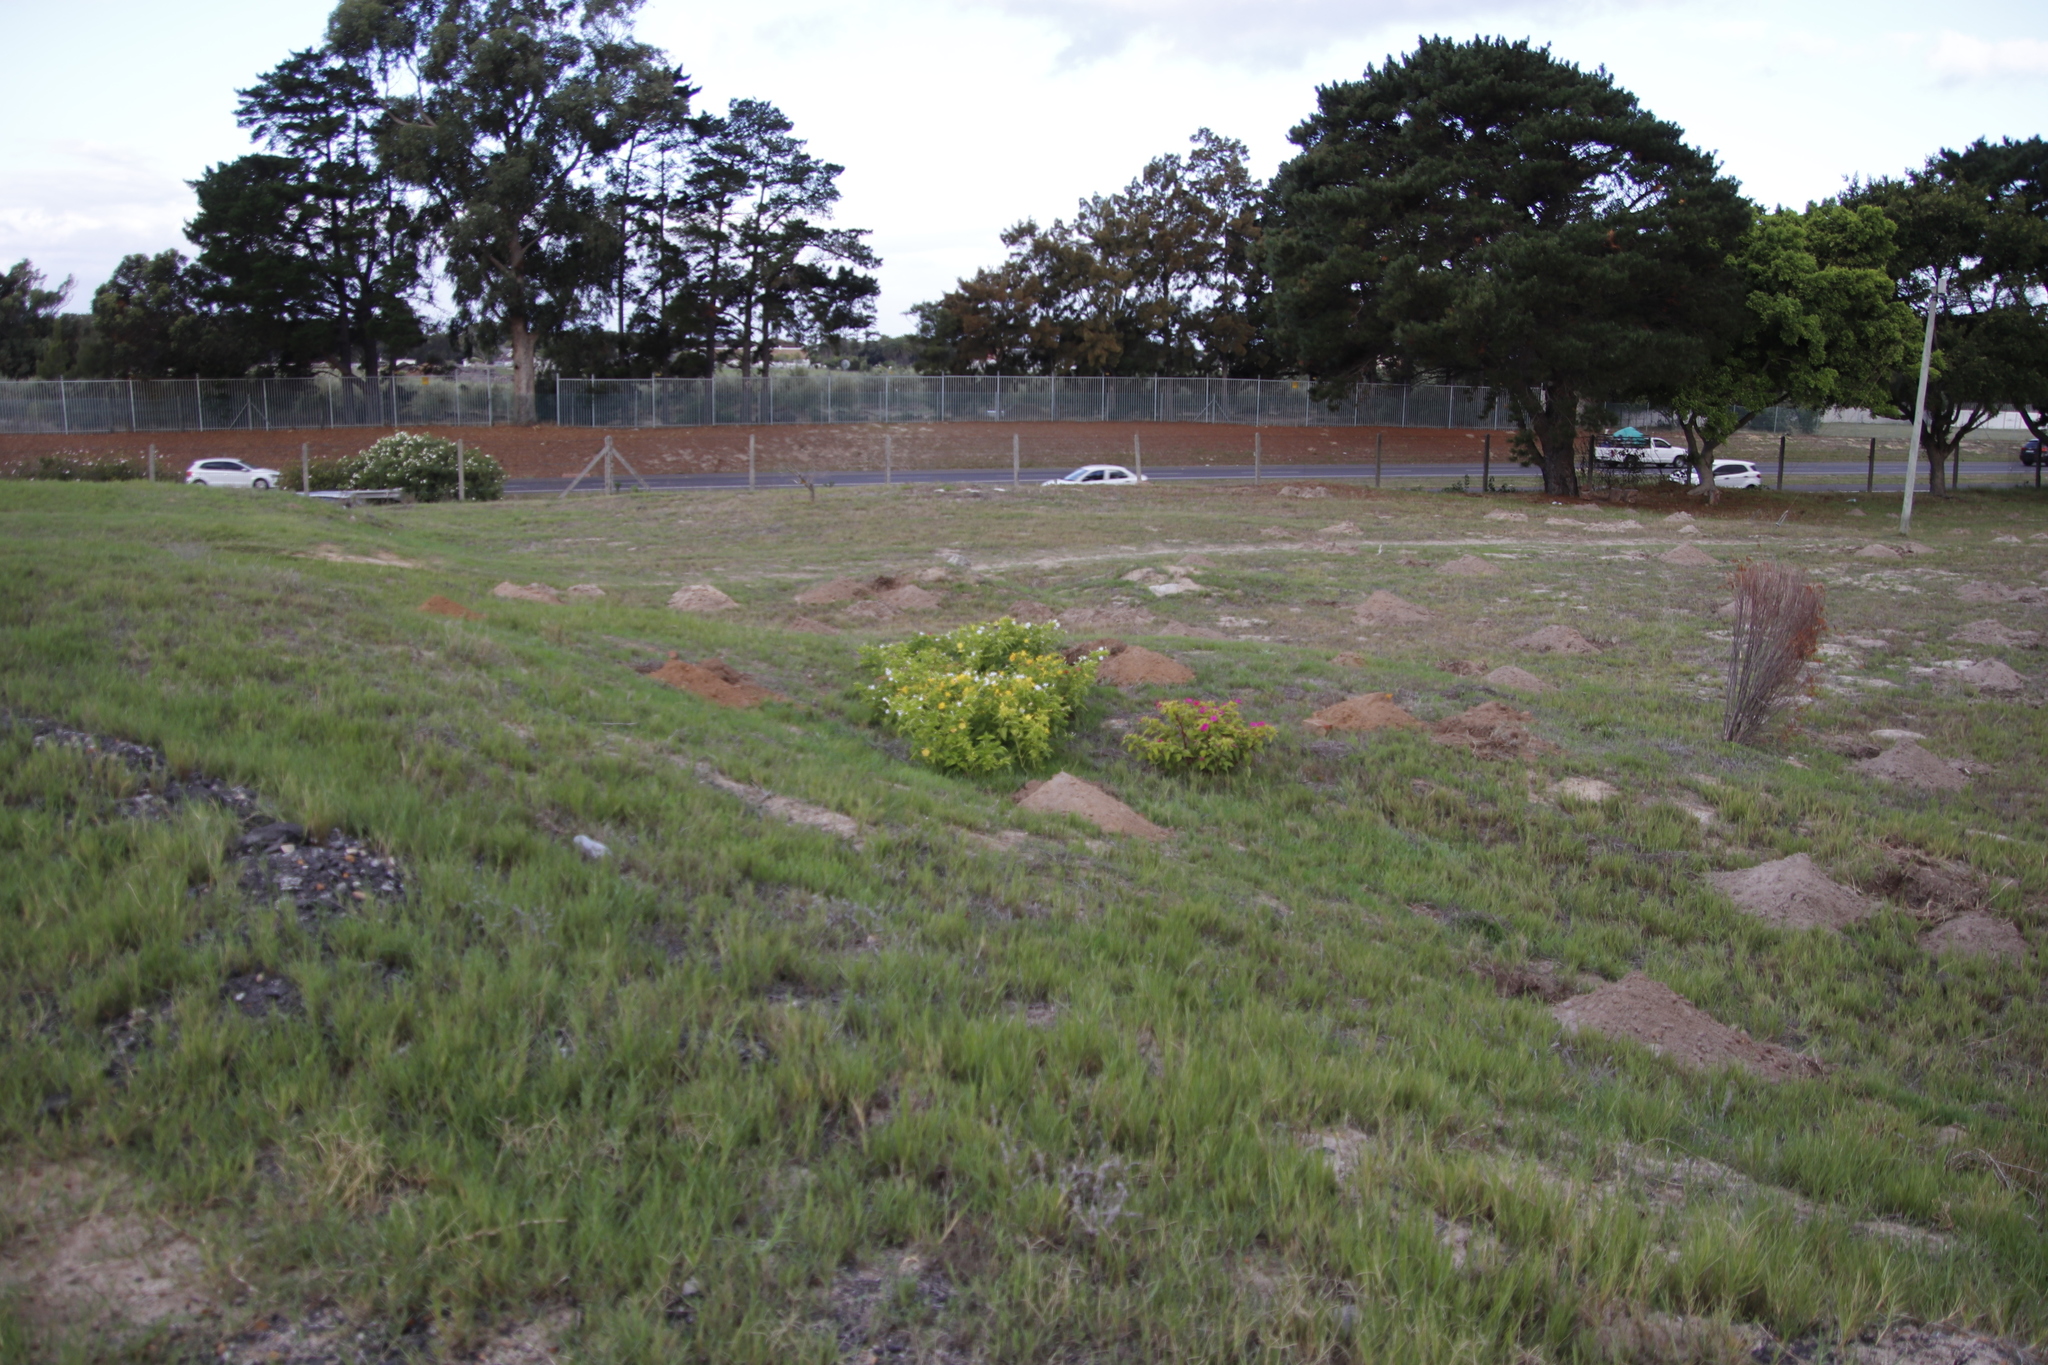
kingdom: Plantae
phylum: Tracheophyta
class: Magnoliopsida
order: Caryophyllales
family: Nyctaginaceae
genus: Mirabilis
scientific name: Mirabilis jalapa
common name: Marvel-of-peru
